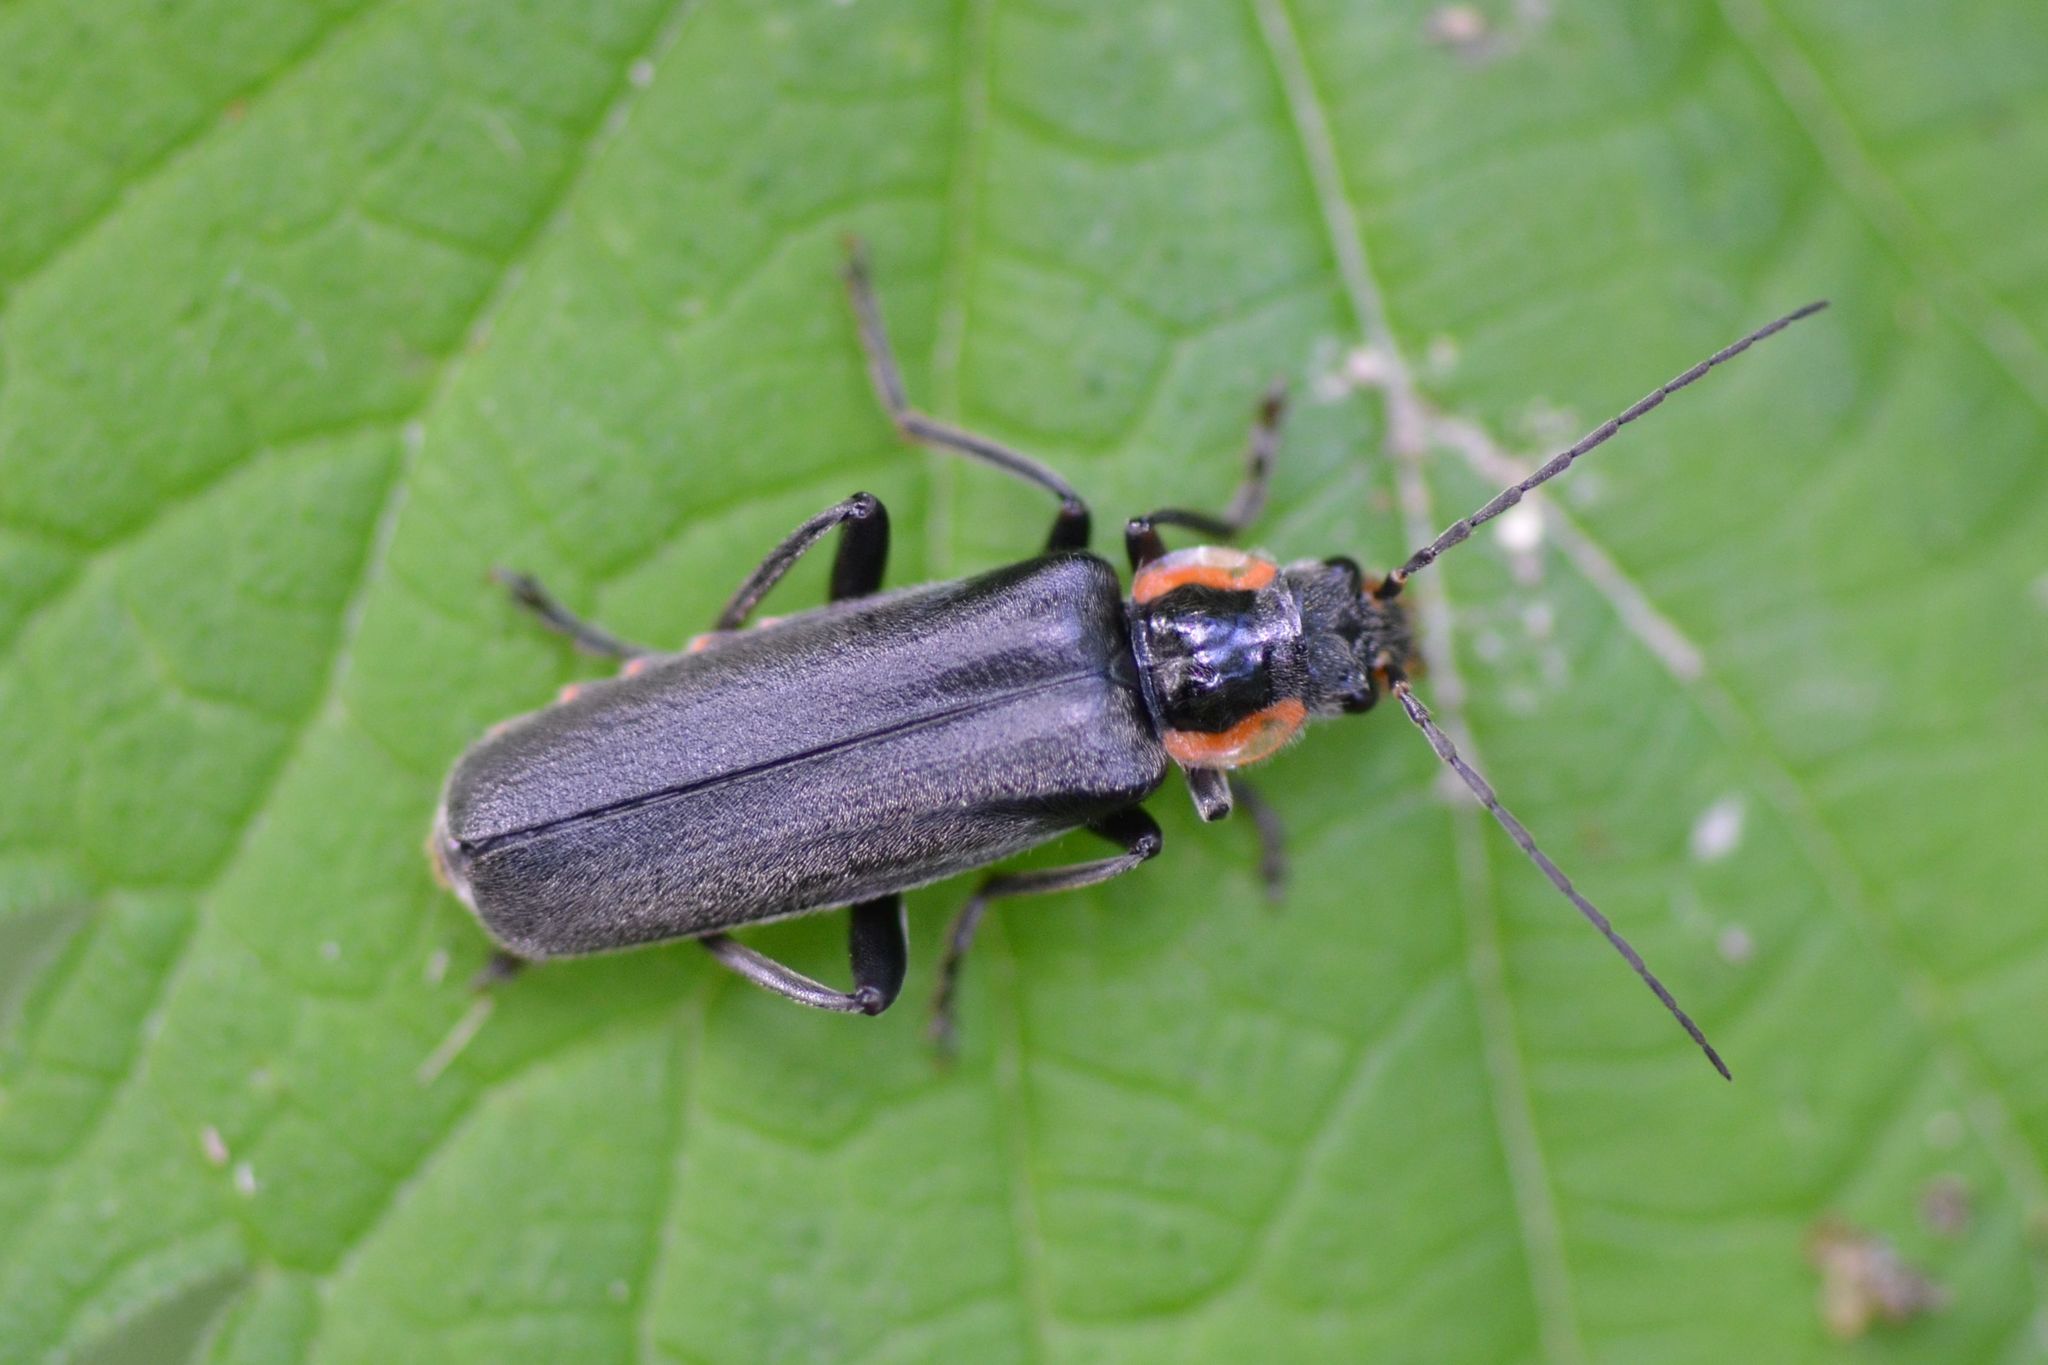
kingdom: Animalia
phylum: Arthropoda
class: Insecta
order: Coleoptera
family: Cantharidae
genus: Cantharis
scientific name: Cantharis obscura
